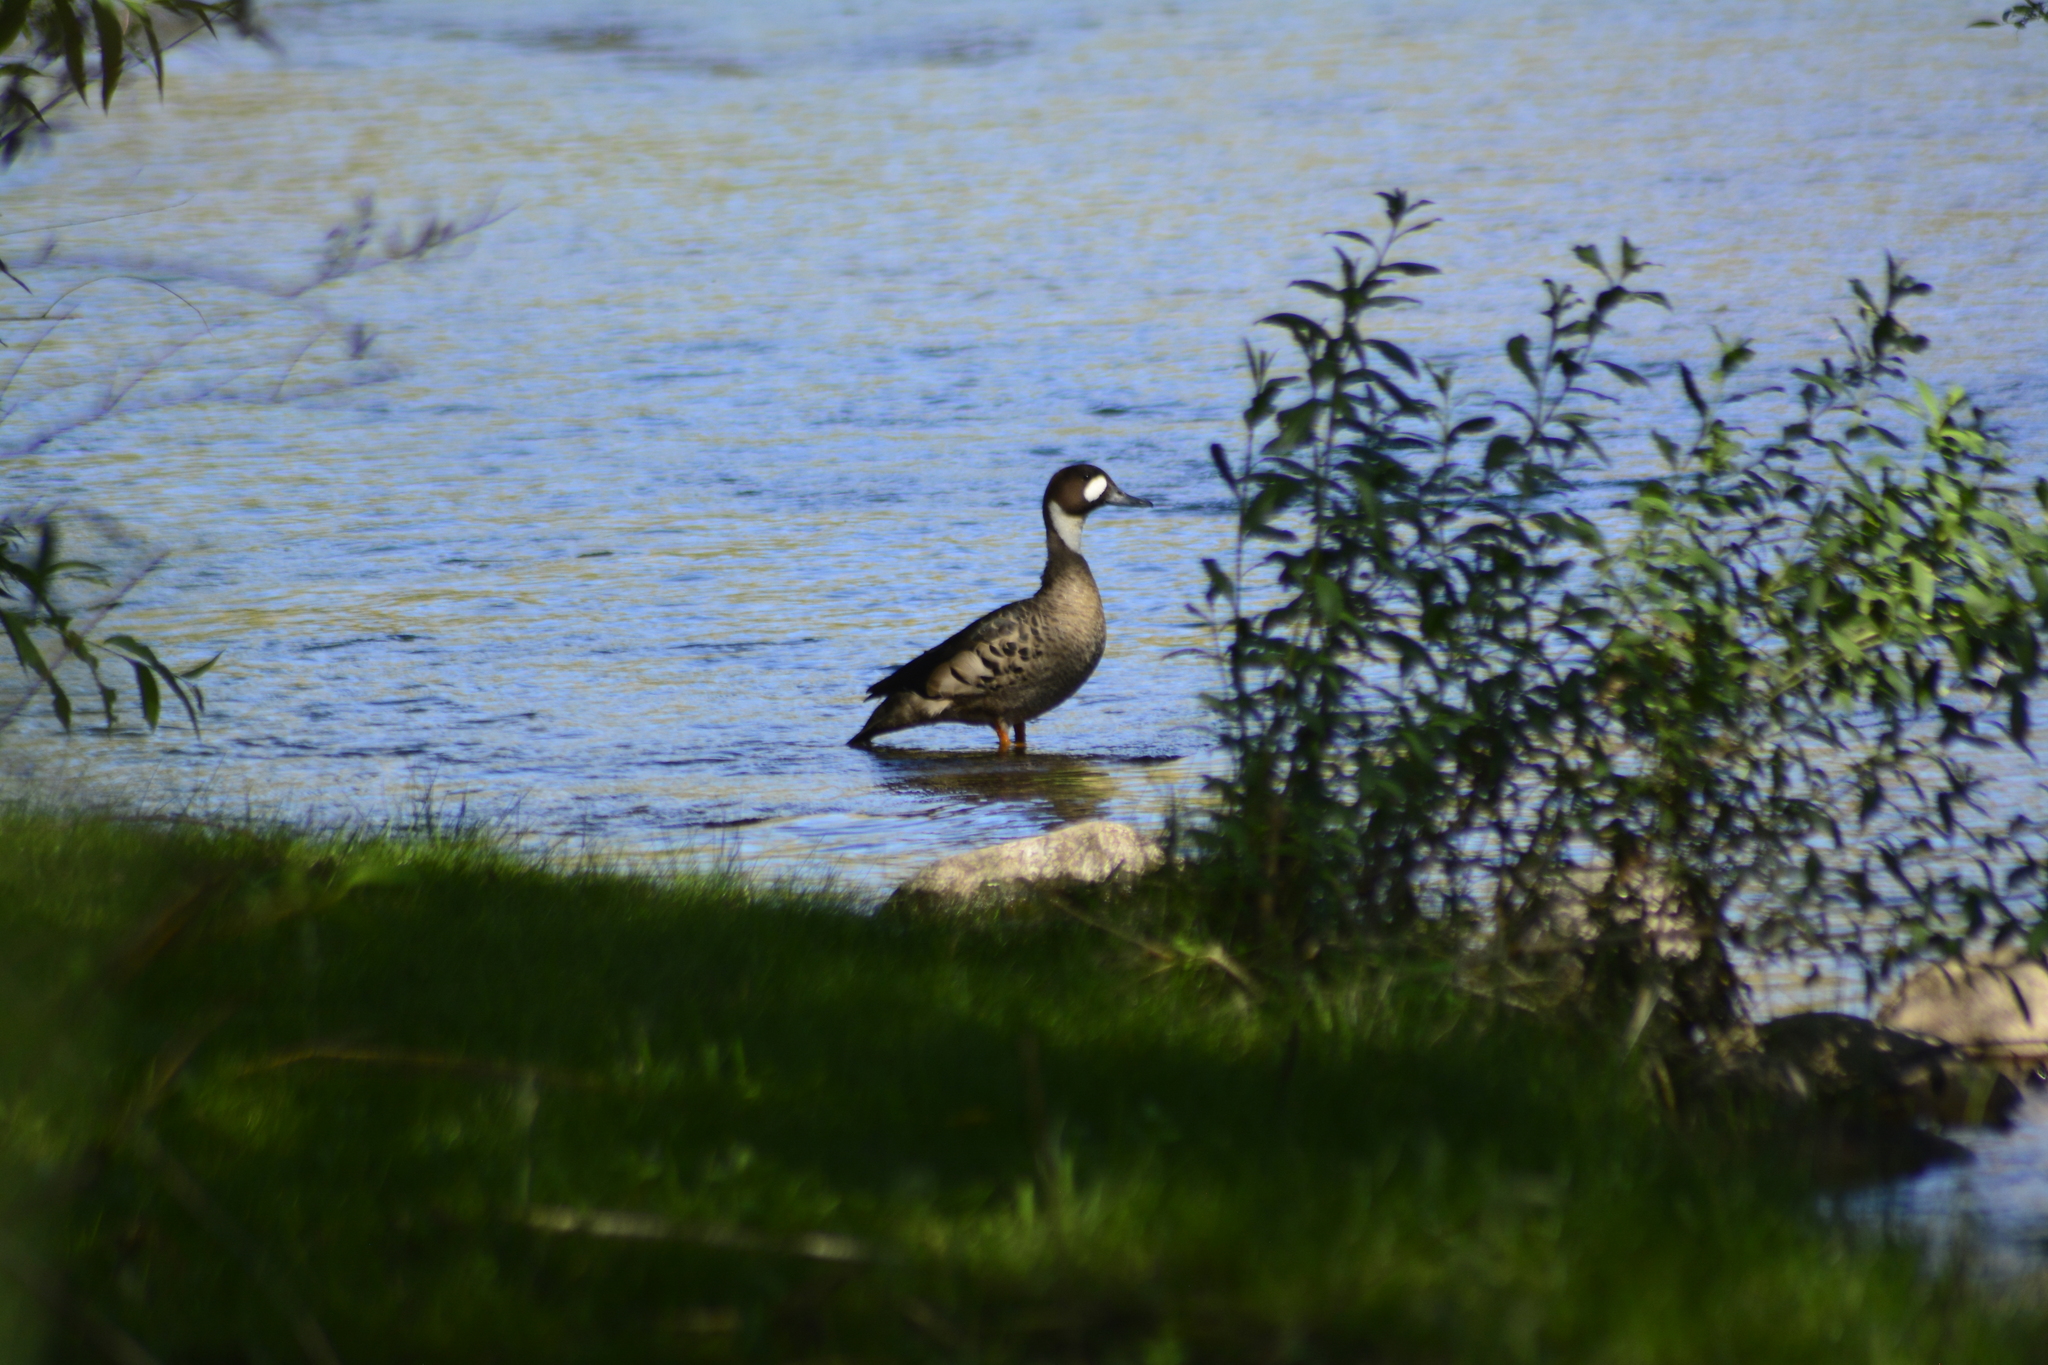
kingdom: Animalia
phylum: Chordata
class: Aves
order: Anseriformes
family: Anatidae
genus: Speculanas
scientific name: Speculanas specularis
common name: Bronze-winged duck
